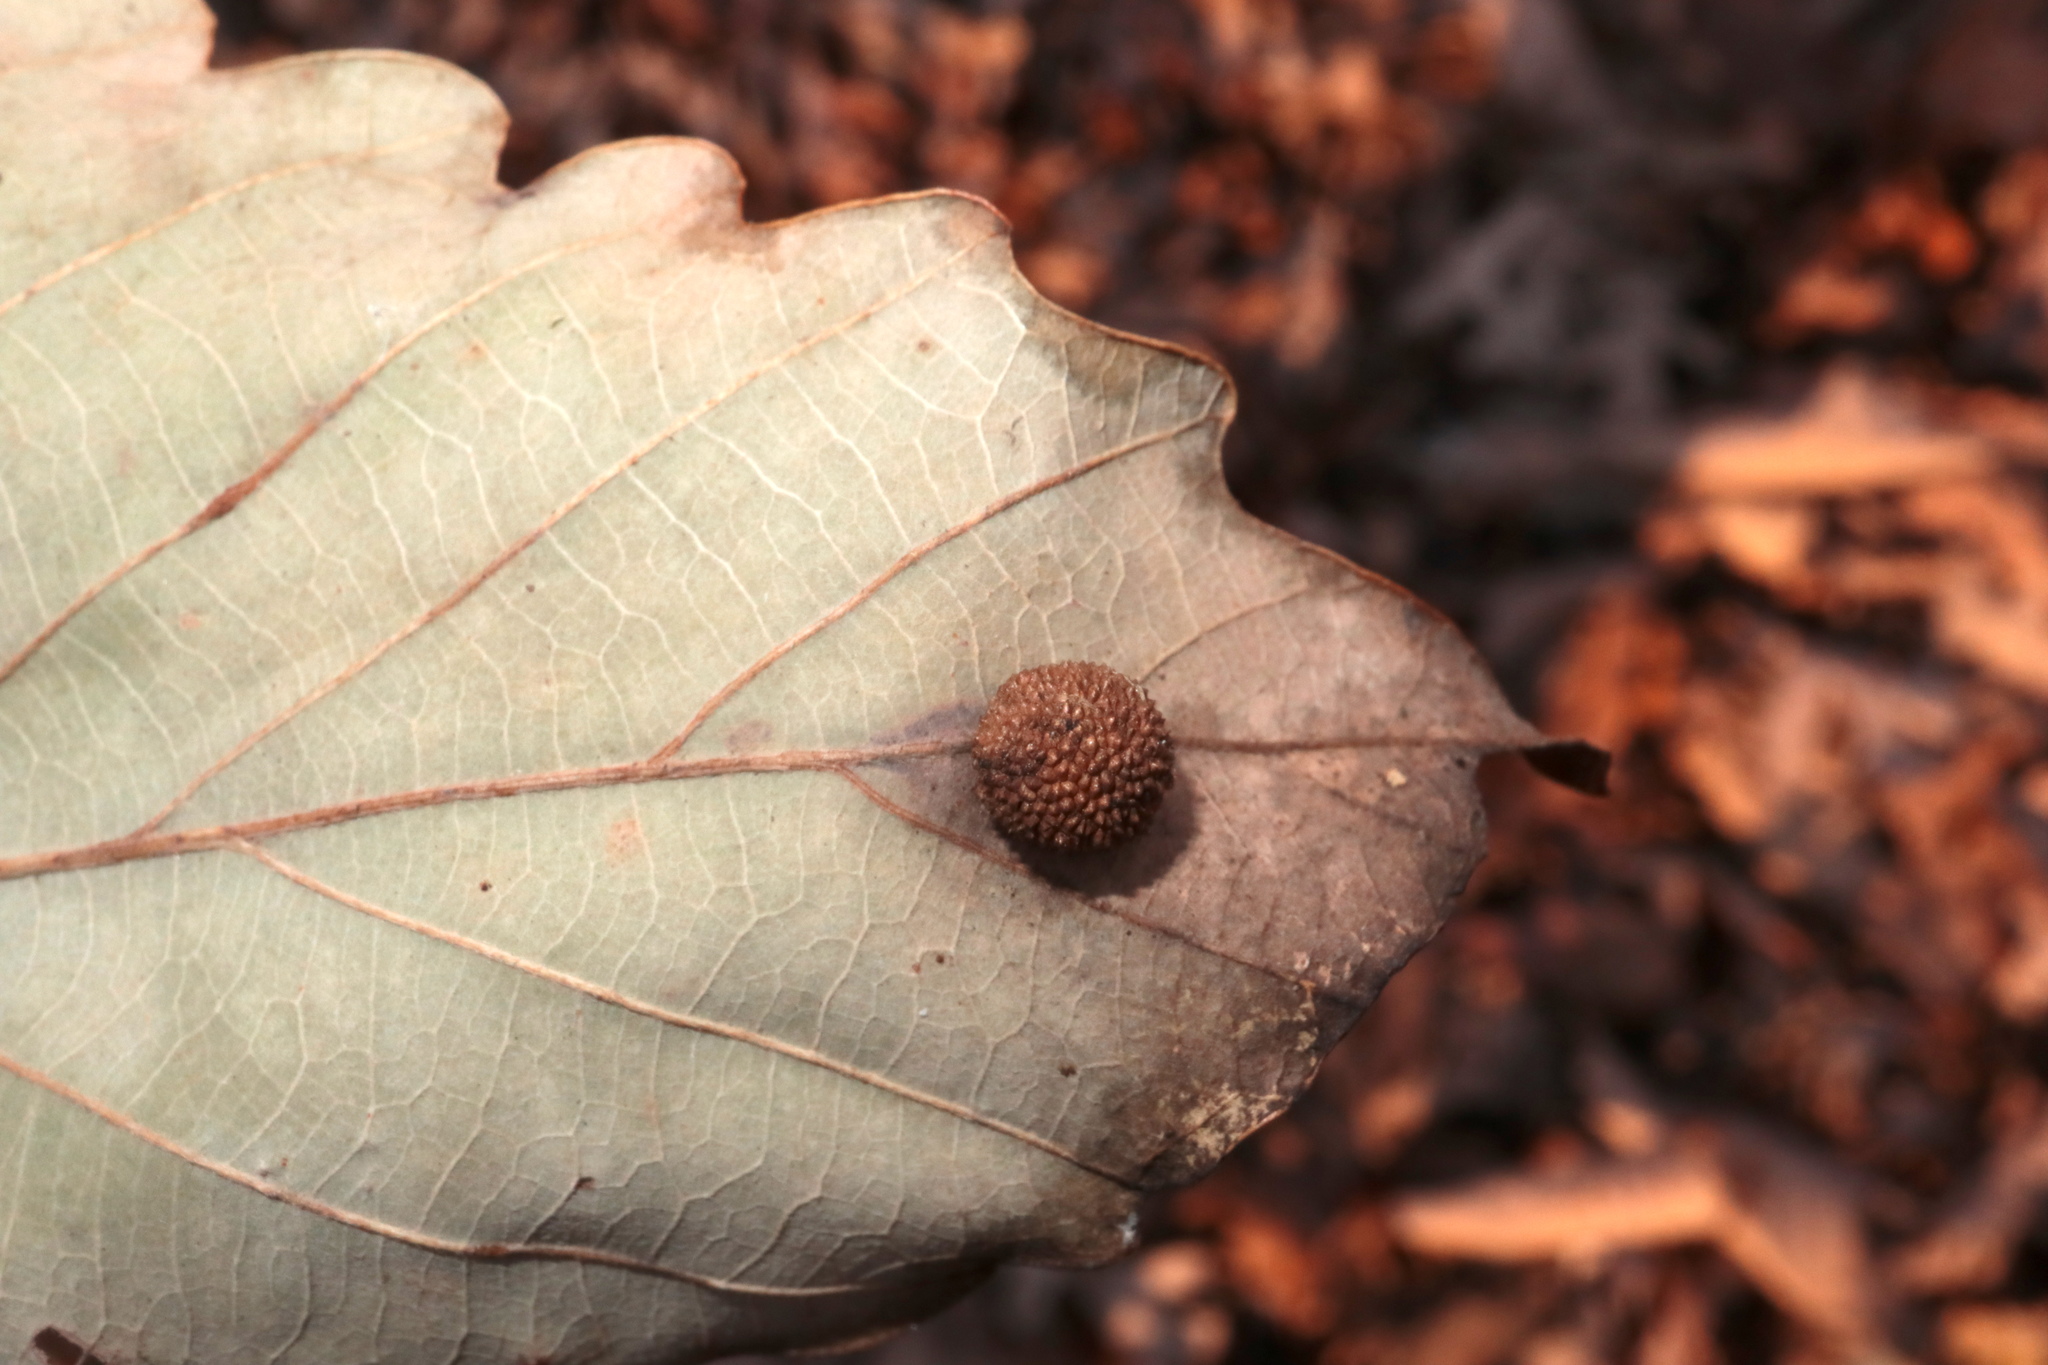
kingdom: Animalia
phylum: Arthropoda
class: Insecta
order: Hymenoptera
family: Cynipidae
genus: Acraspis
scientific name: Acraspis quercushirta
